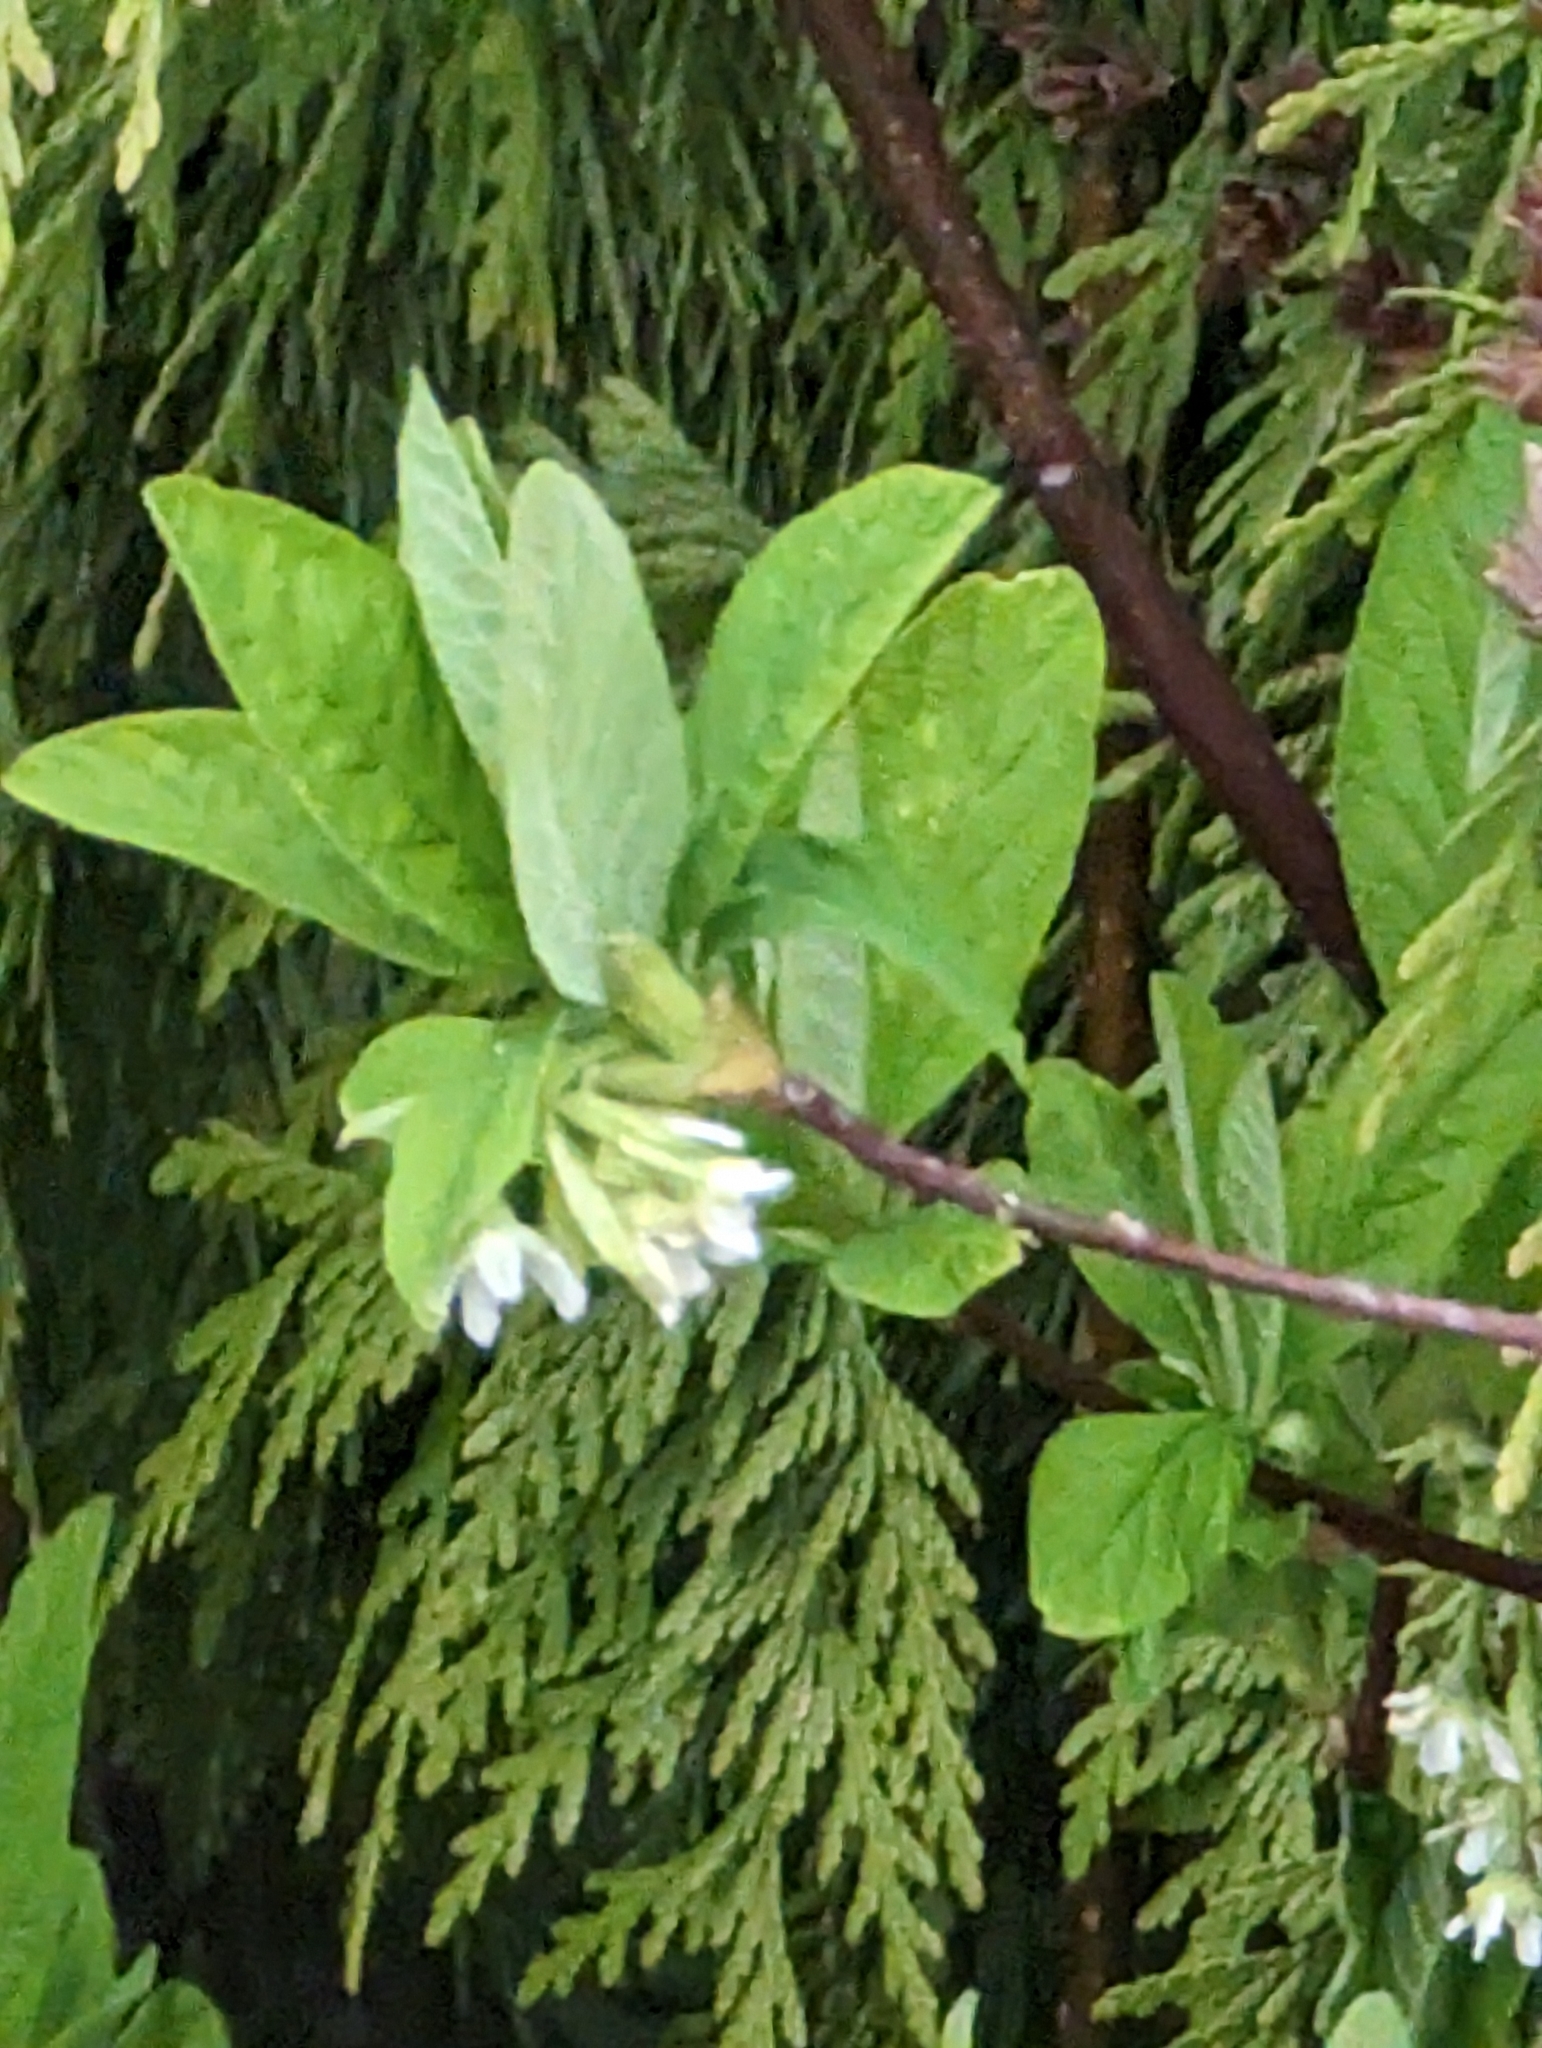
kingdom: Plantae
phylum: Tracheophyta
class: Magnoliopsida
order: Rosales
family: Rosaceae
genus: Oemleria
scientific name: Oemleria cerasiformis
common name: Osoberry
